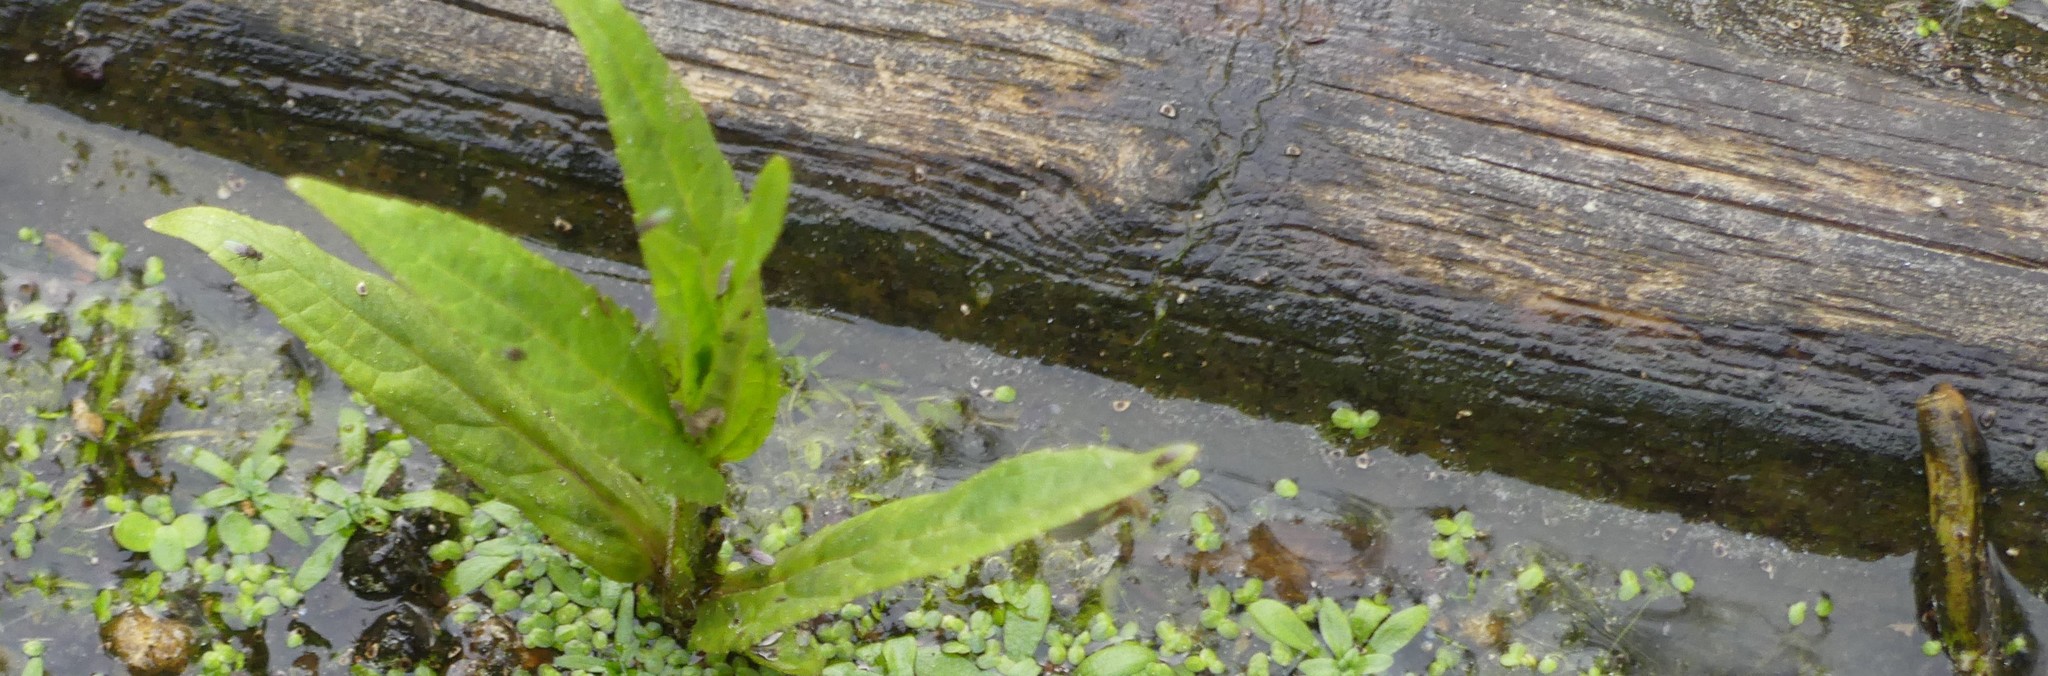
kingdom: Plantae
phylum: Tracheophyta
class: Magnoliopsida
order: Caryophyllales
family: Polygonaceae
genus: Rumex
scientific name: Rumex hydrolapathum
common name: Water dock
